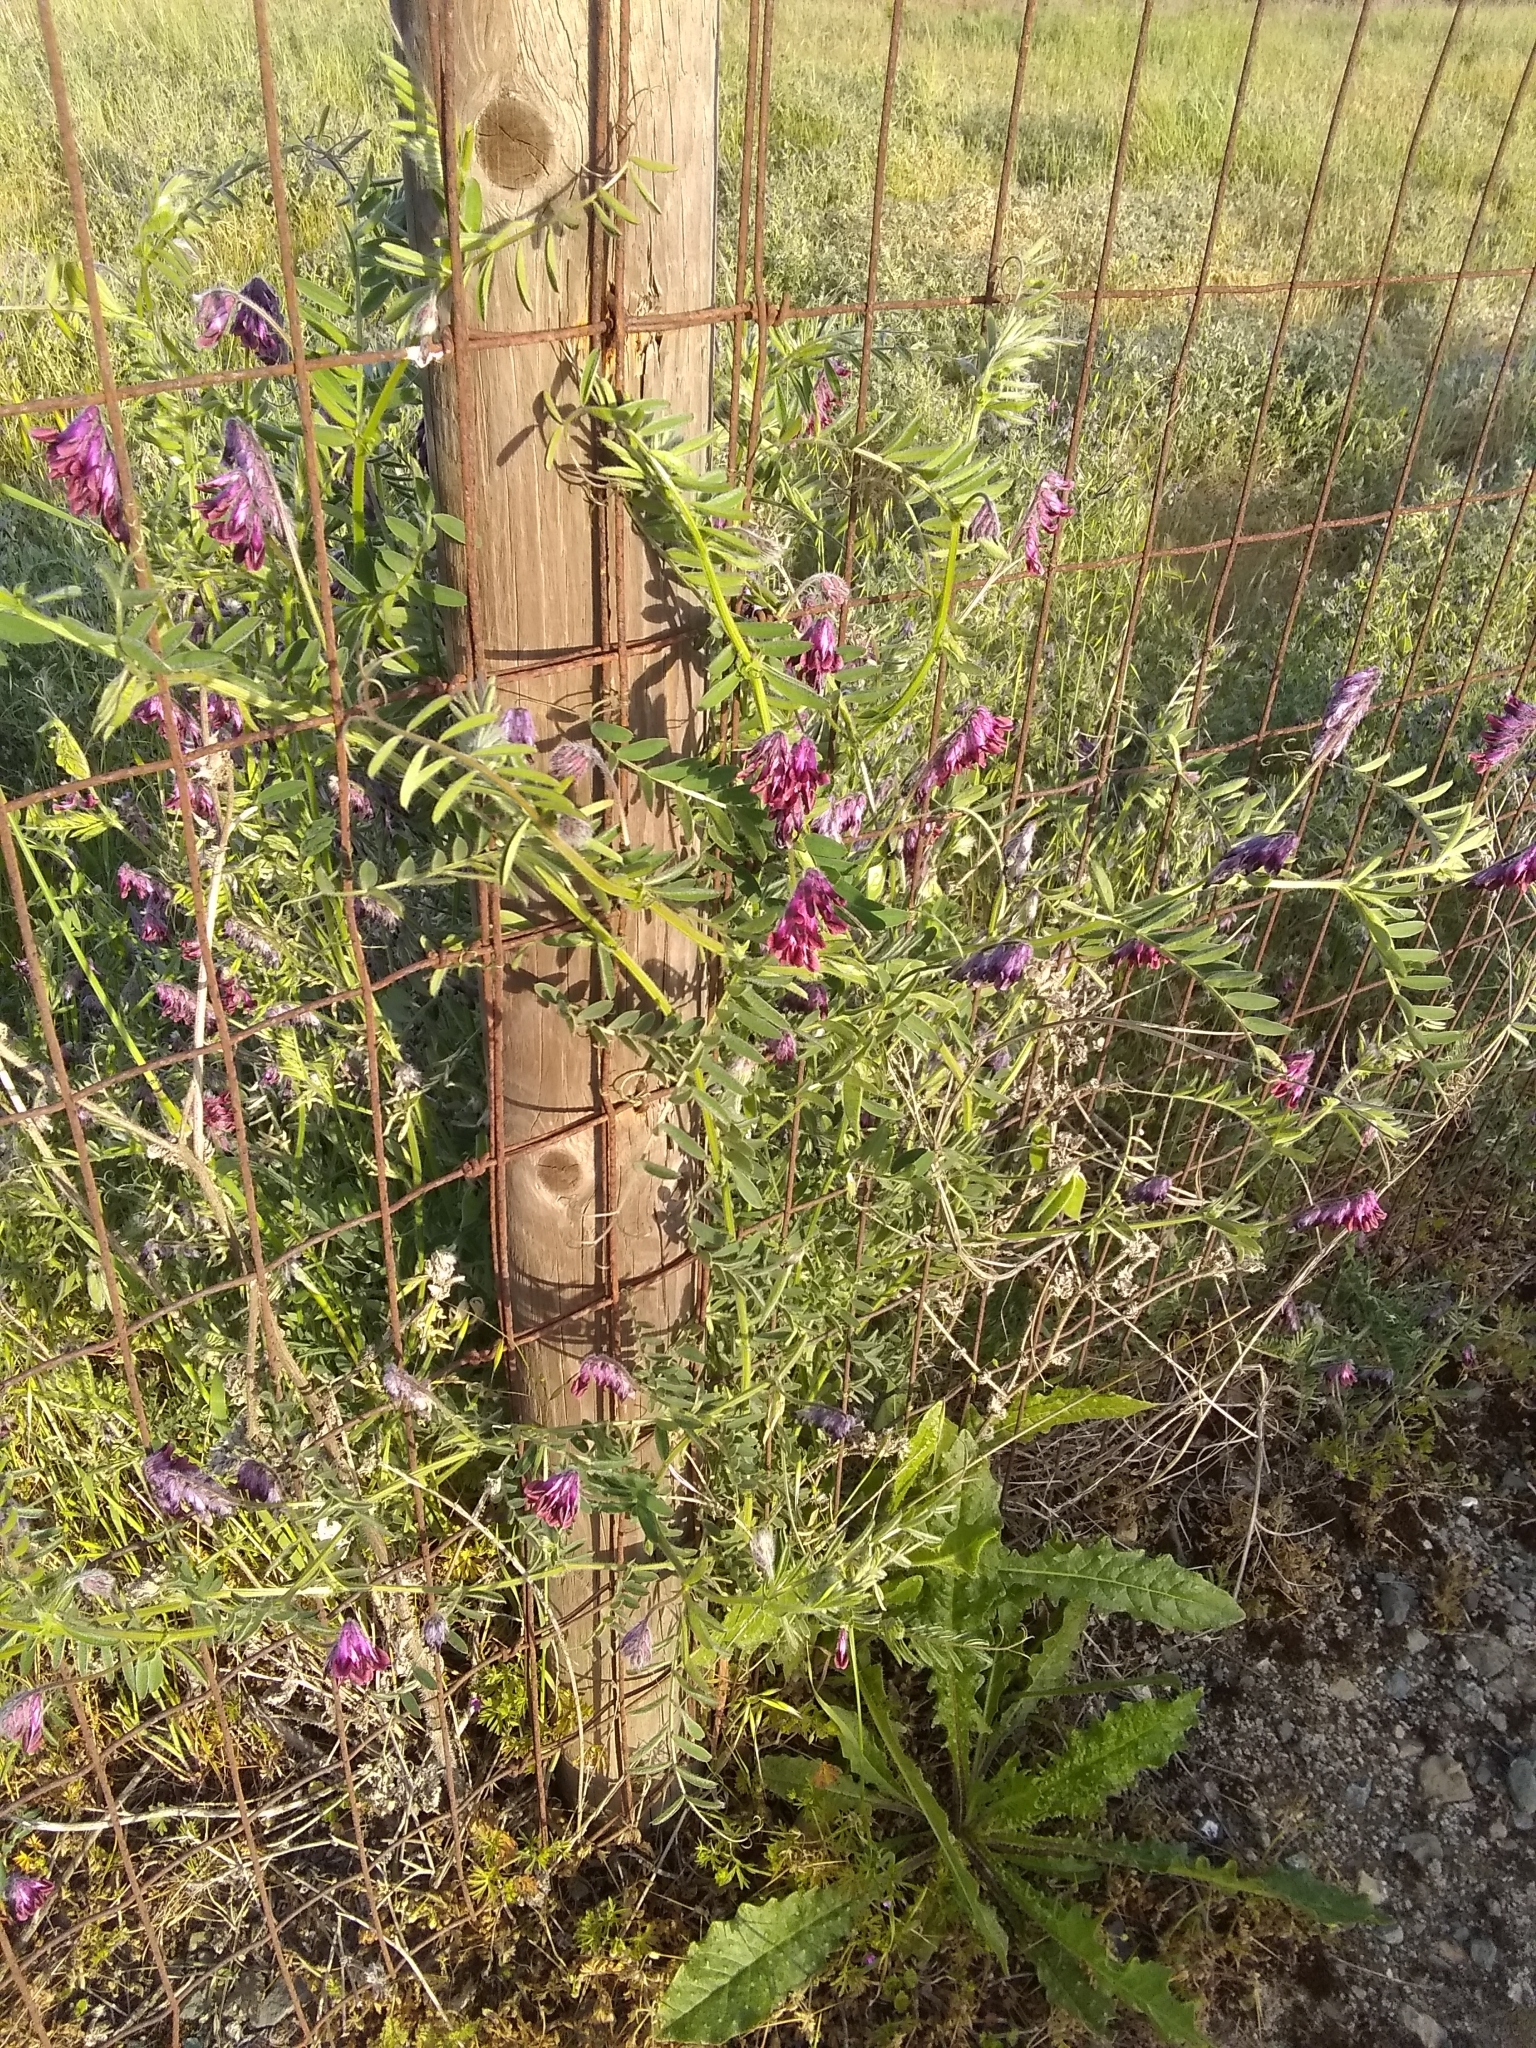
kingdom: Plantae
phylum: Tracheophyta
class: Magnoliopsida
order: Fabales
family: Fabaceae
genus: Vicia
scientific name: Vicia benghalensis
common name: Purple vetch
